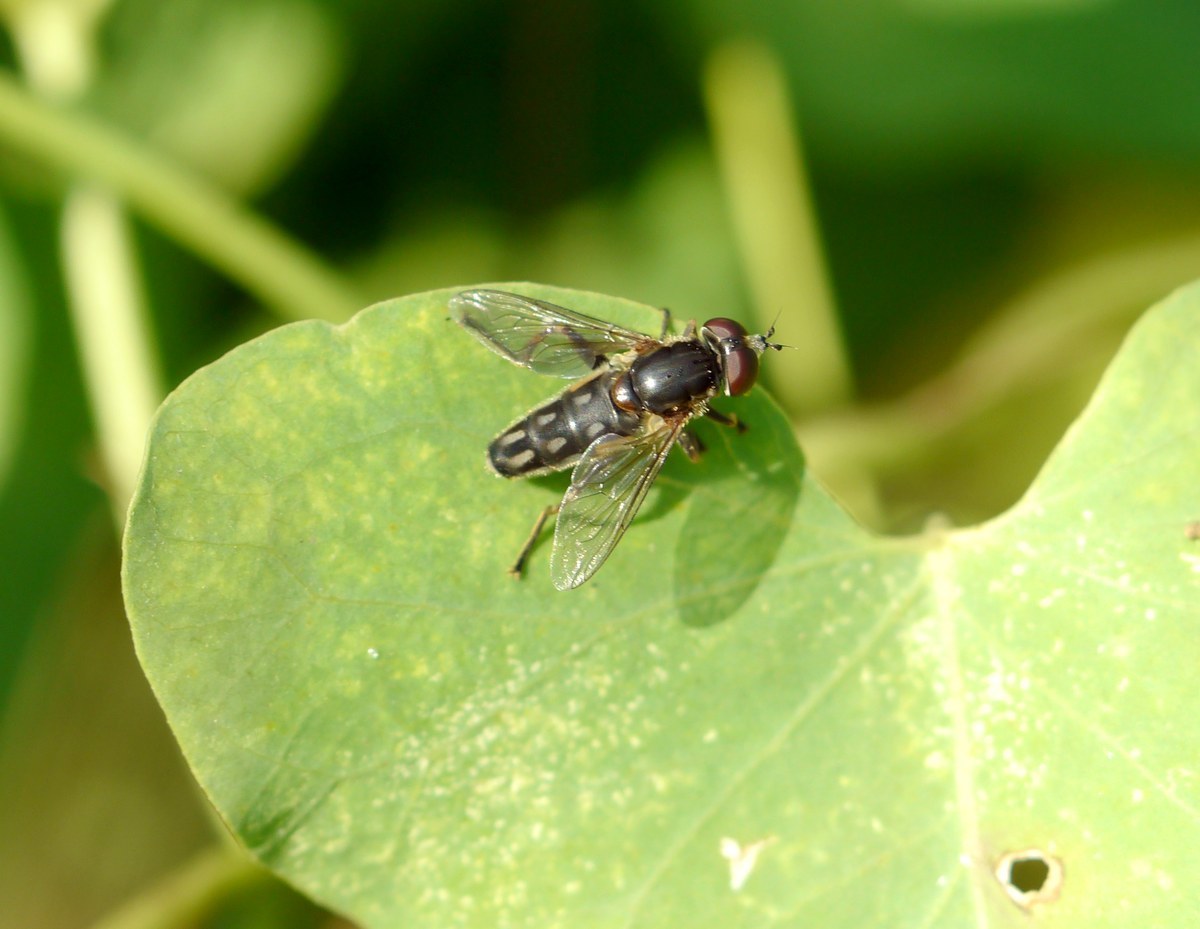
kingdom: Animalia
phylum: Arthropoda
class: Insecta
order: Diptera
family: Syrphidae
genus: Lejops
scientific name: Lejops vittatus
